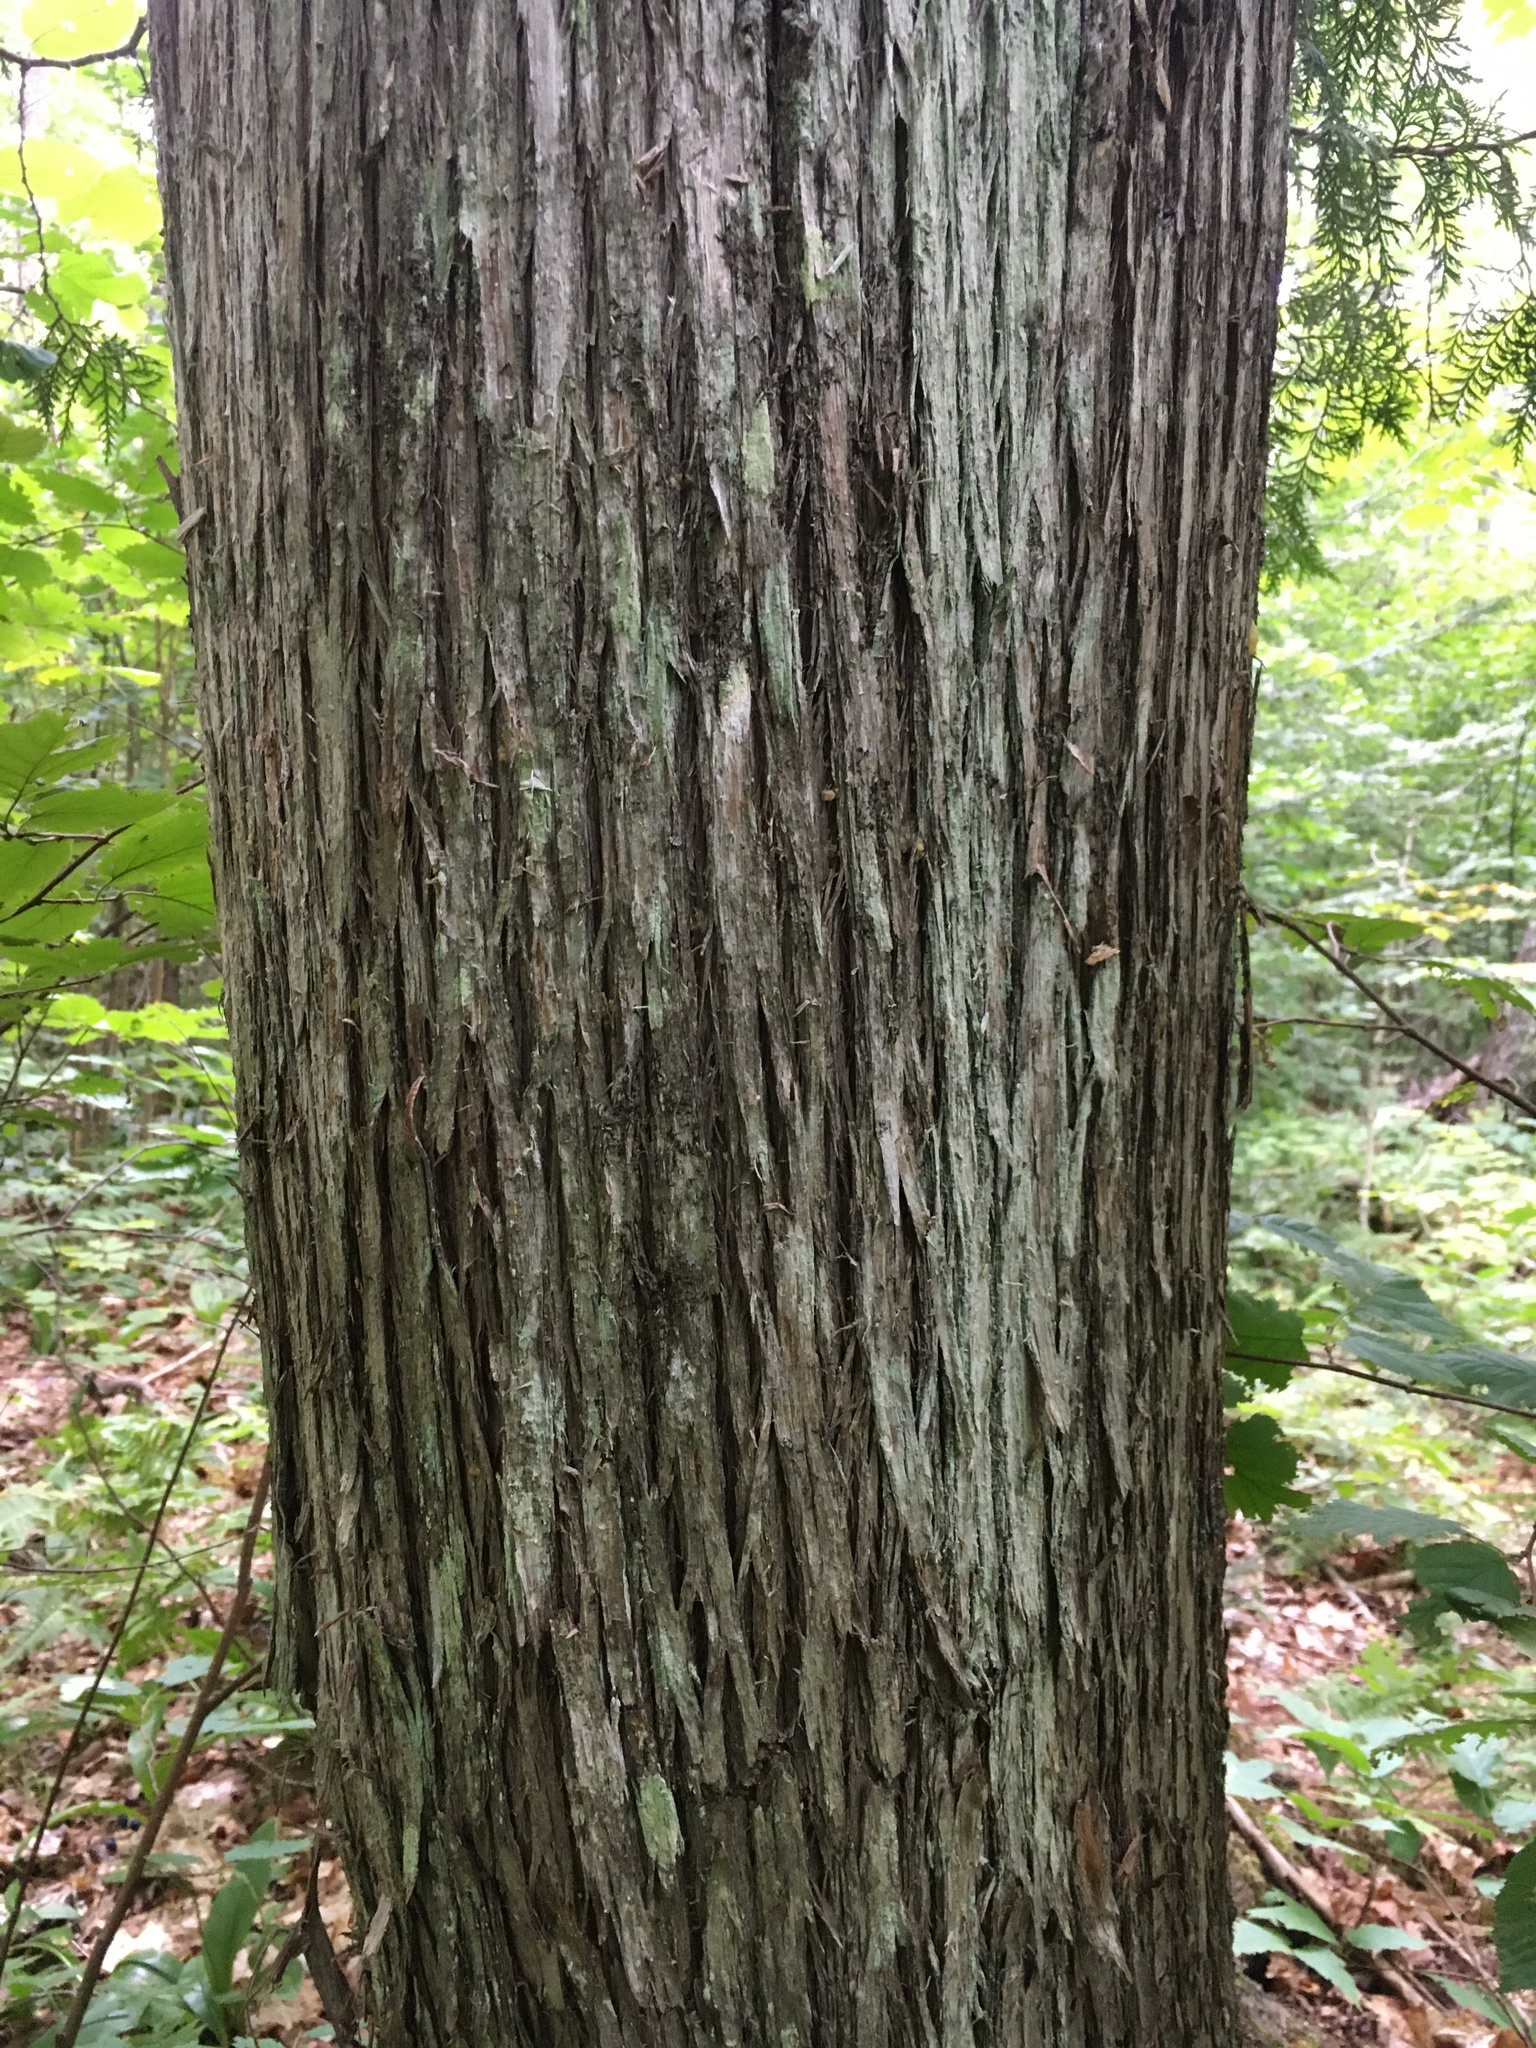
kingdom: Plantae
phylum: Tracheophyta
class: Pinopsida
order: Pinales
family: Cupressaceae
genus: Thuja
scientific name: Thuja occidentalis
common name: Northern white-cedar
